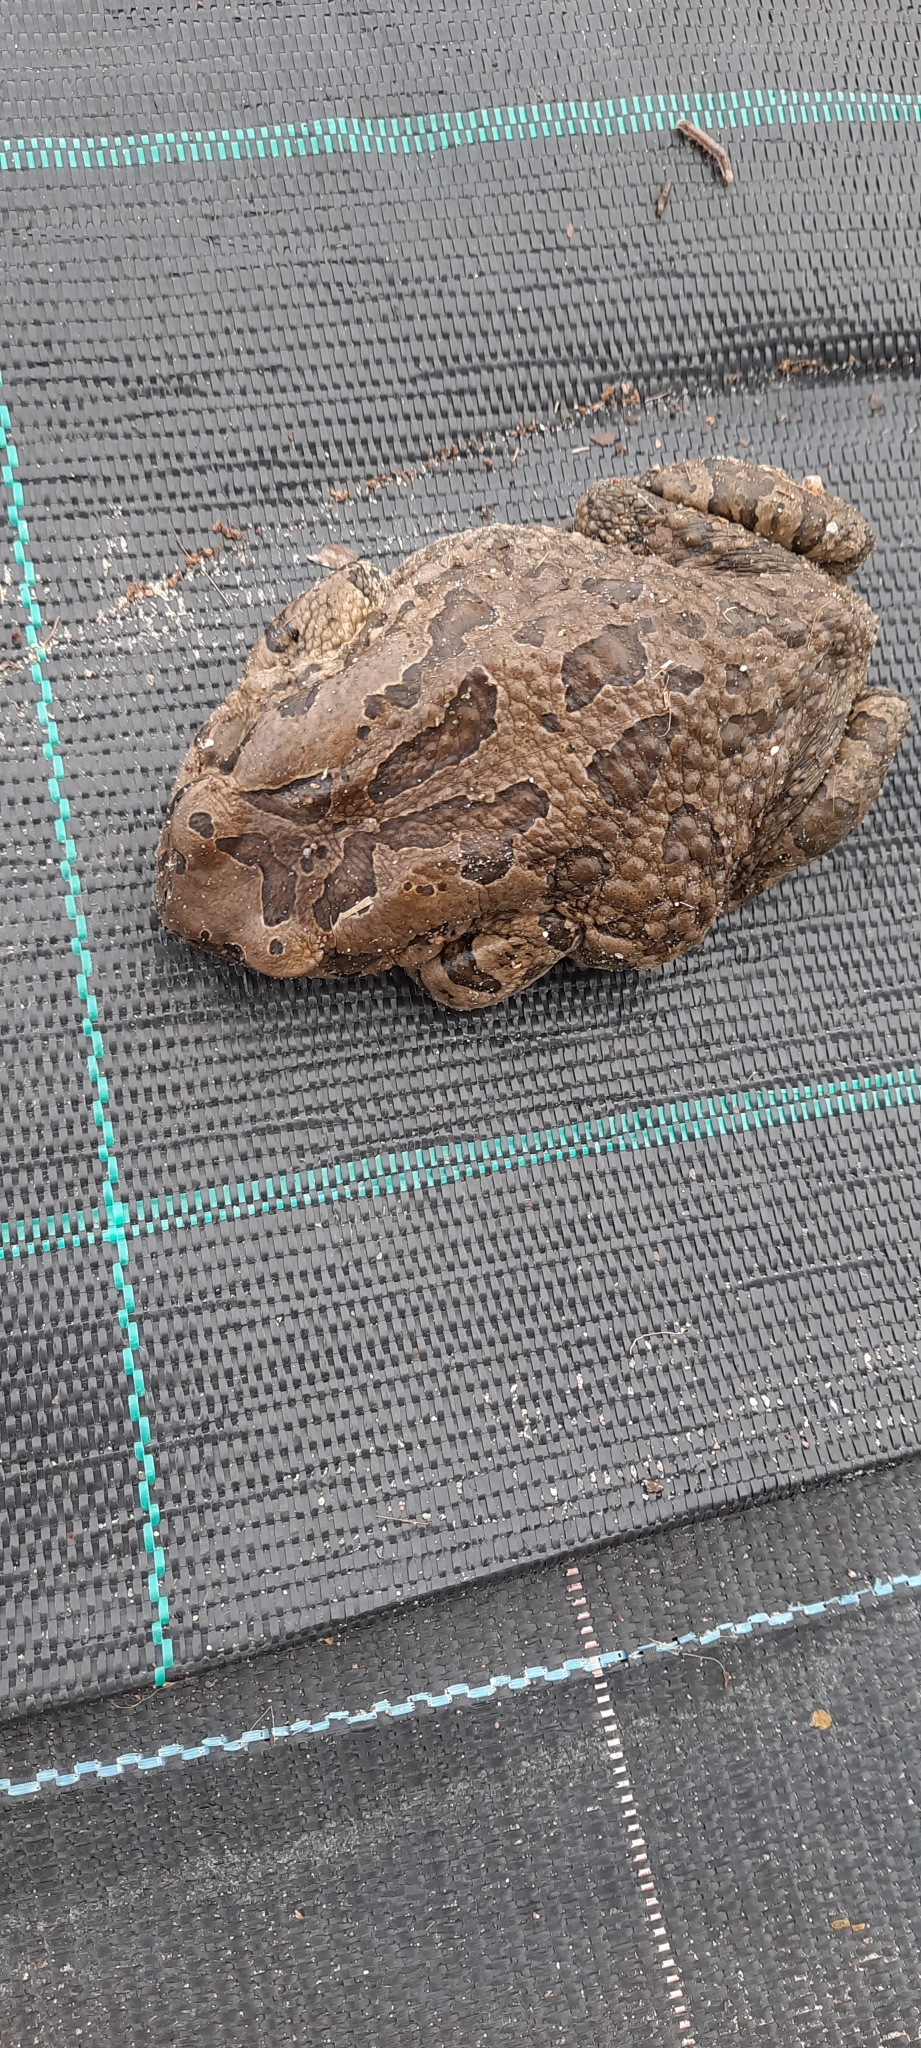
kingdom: Animalia
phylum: Chordata
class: Amphibia
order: Anura
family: Bufonidae
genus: Sclerophrys
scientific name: Sclerophrys capensis
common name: Ranger’s toad
